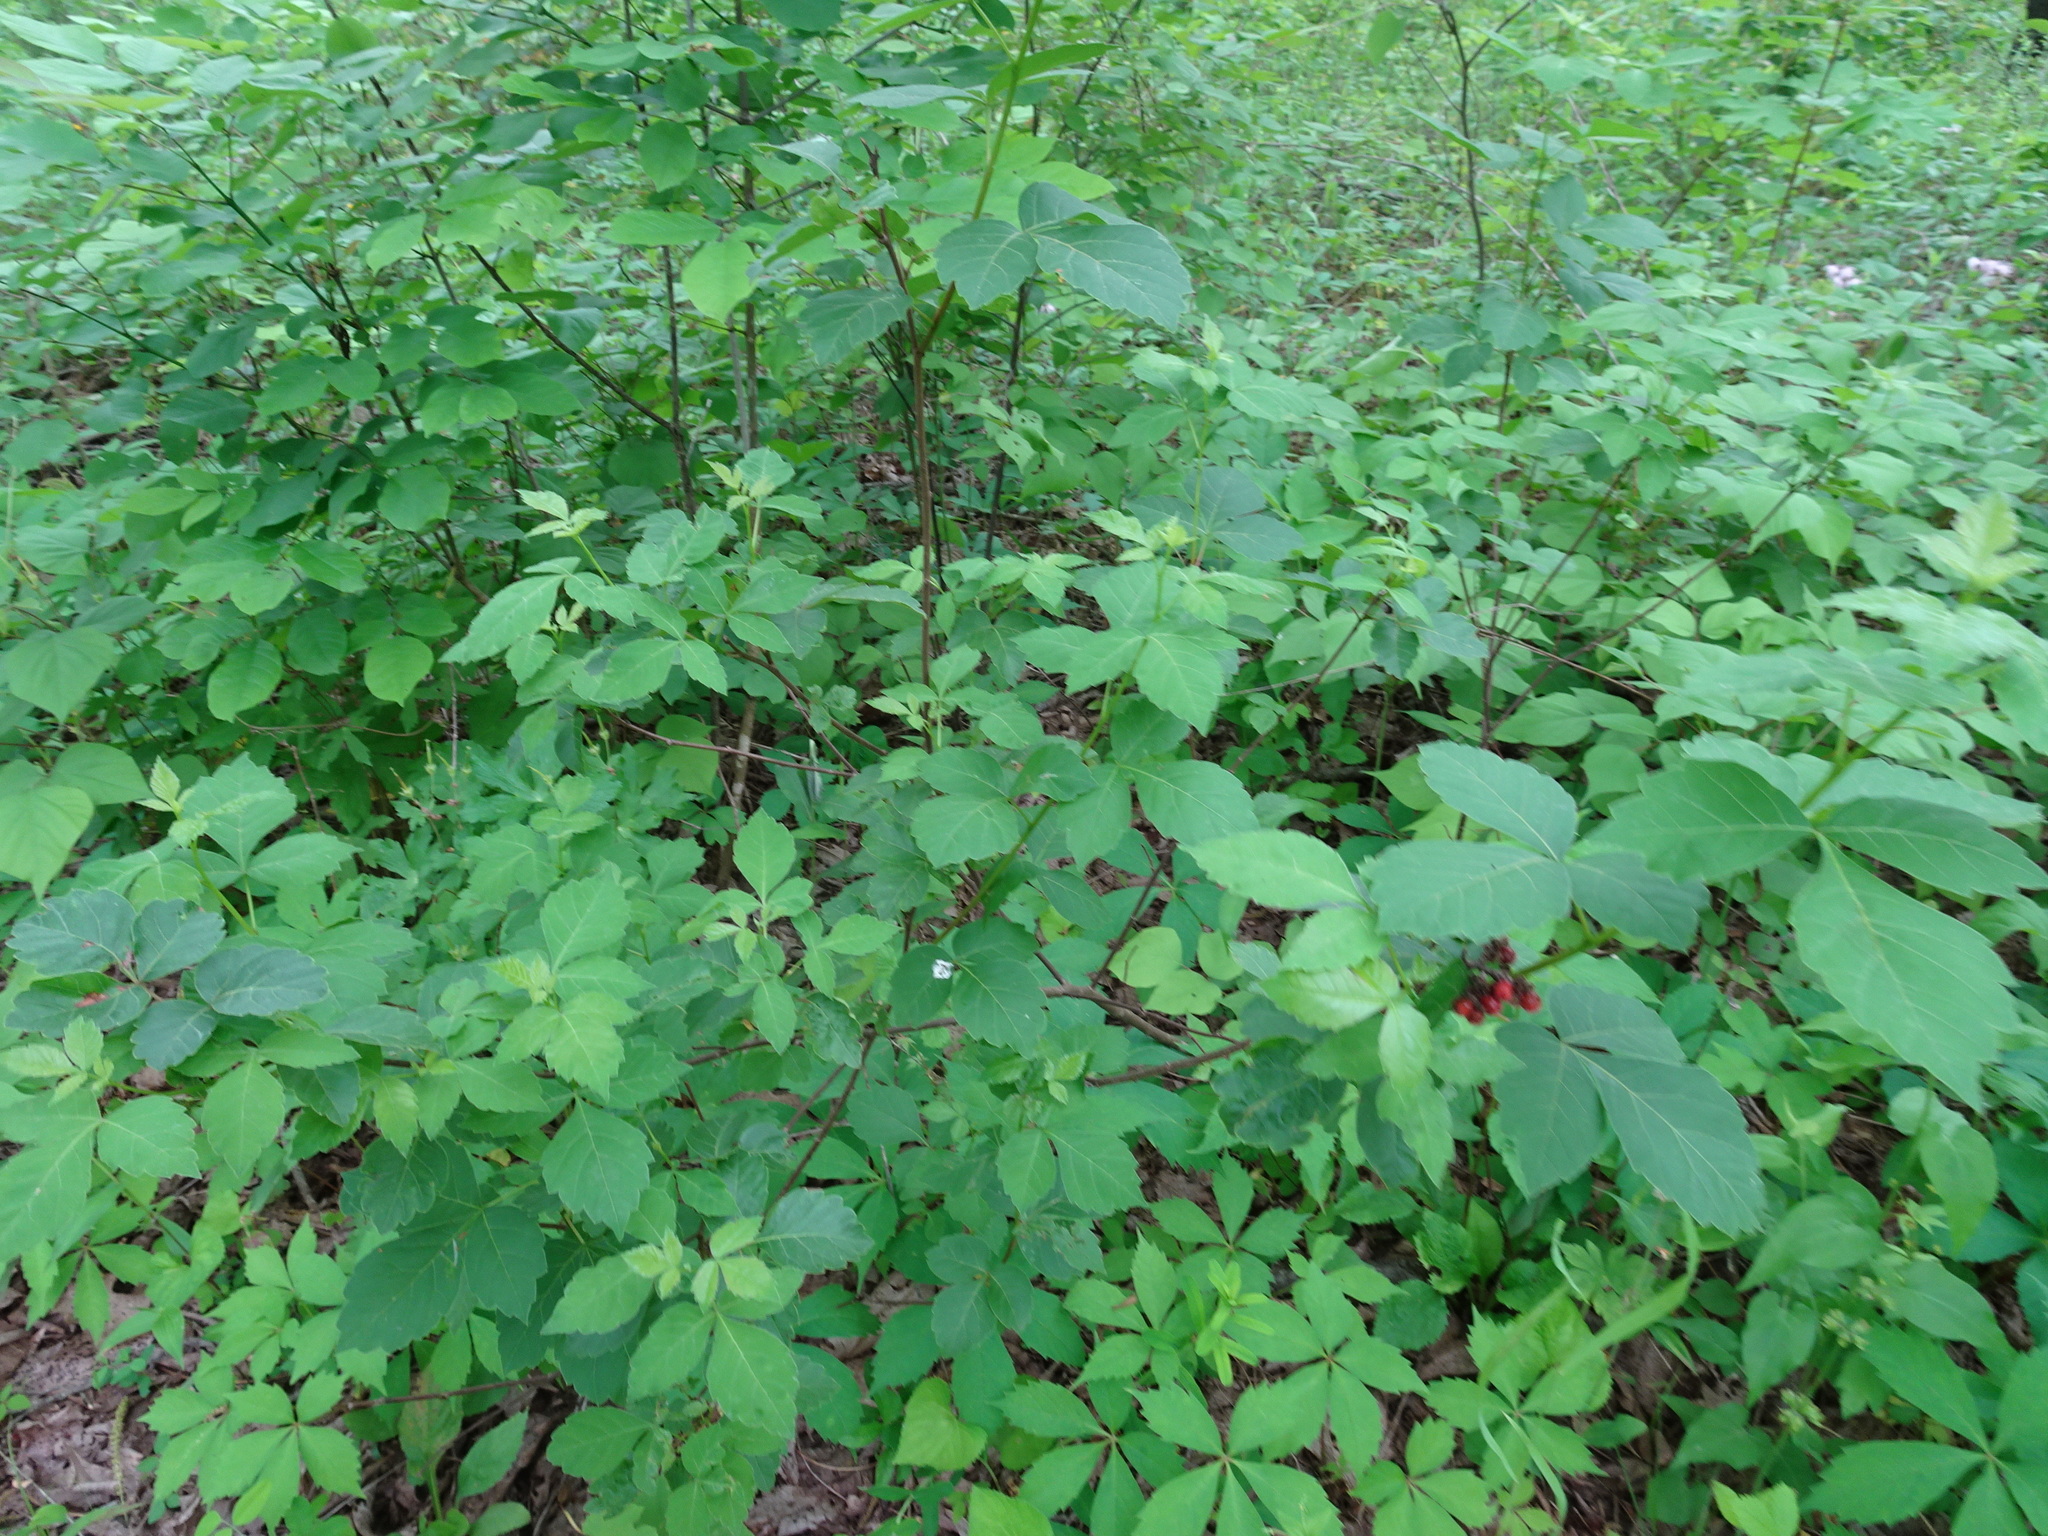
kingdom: Plantae
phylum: Tracheophyta
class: Magnoliopsida
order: Sapindales
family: Anacardiaceae
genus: Rhus
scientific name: Rhus aromatica
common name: Aromatic sumac
